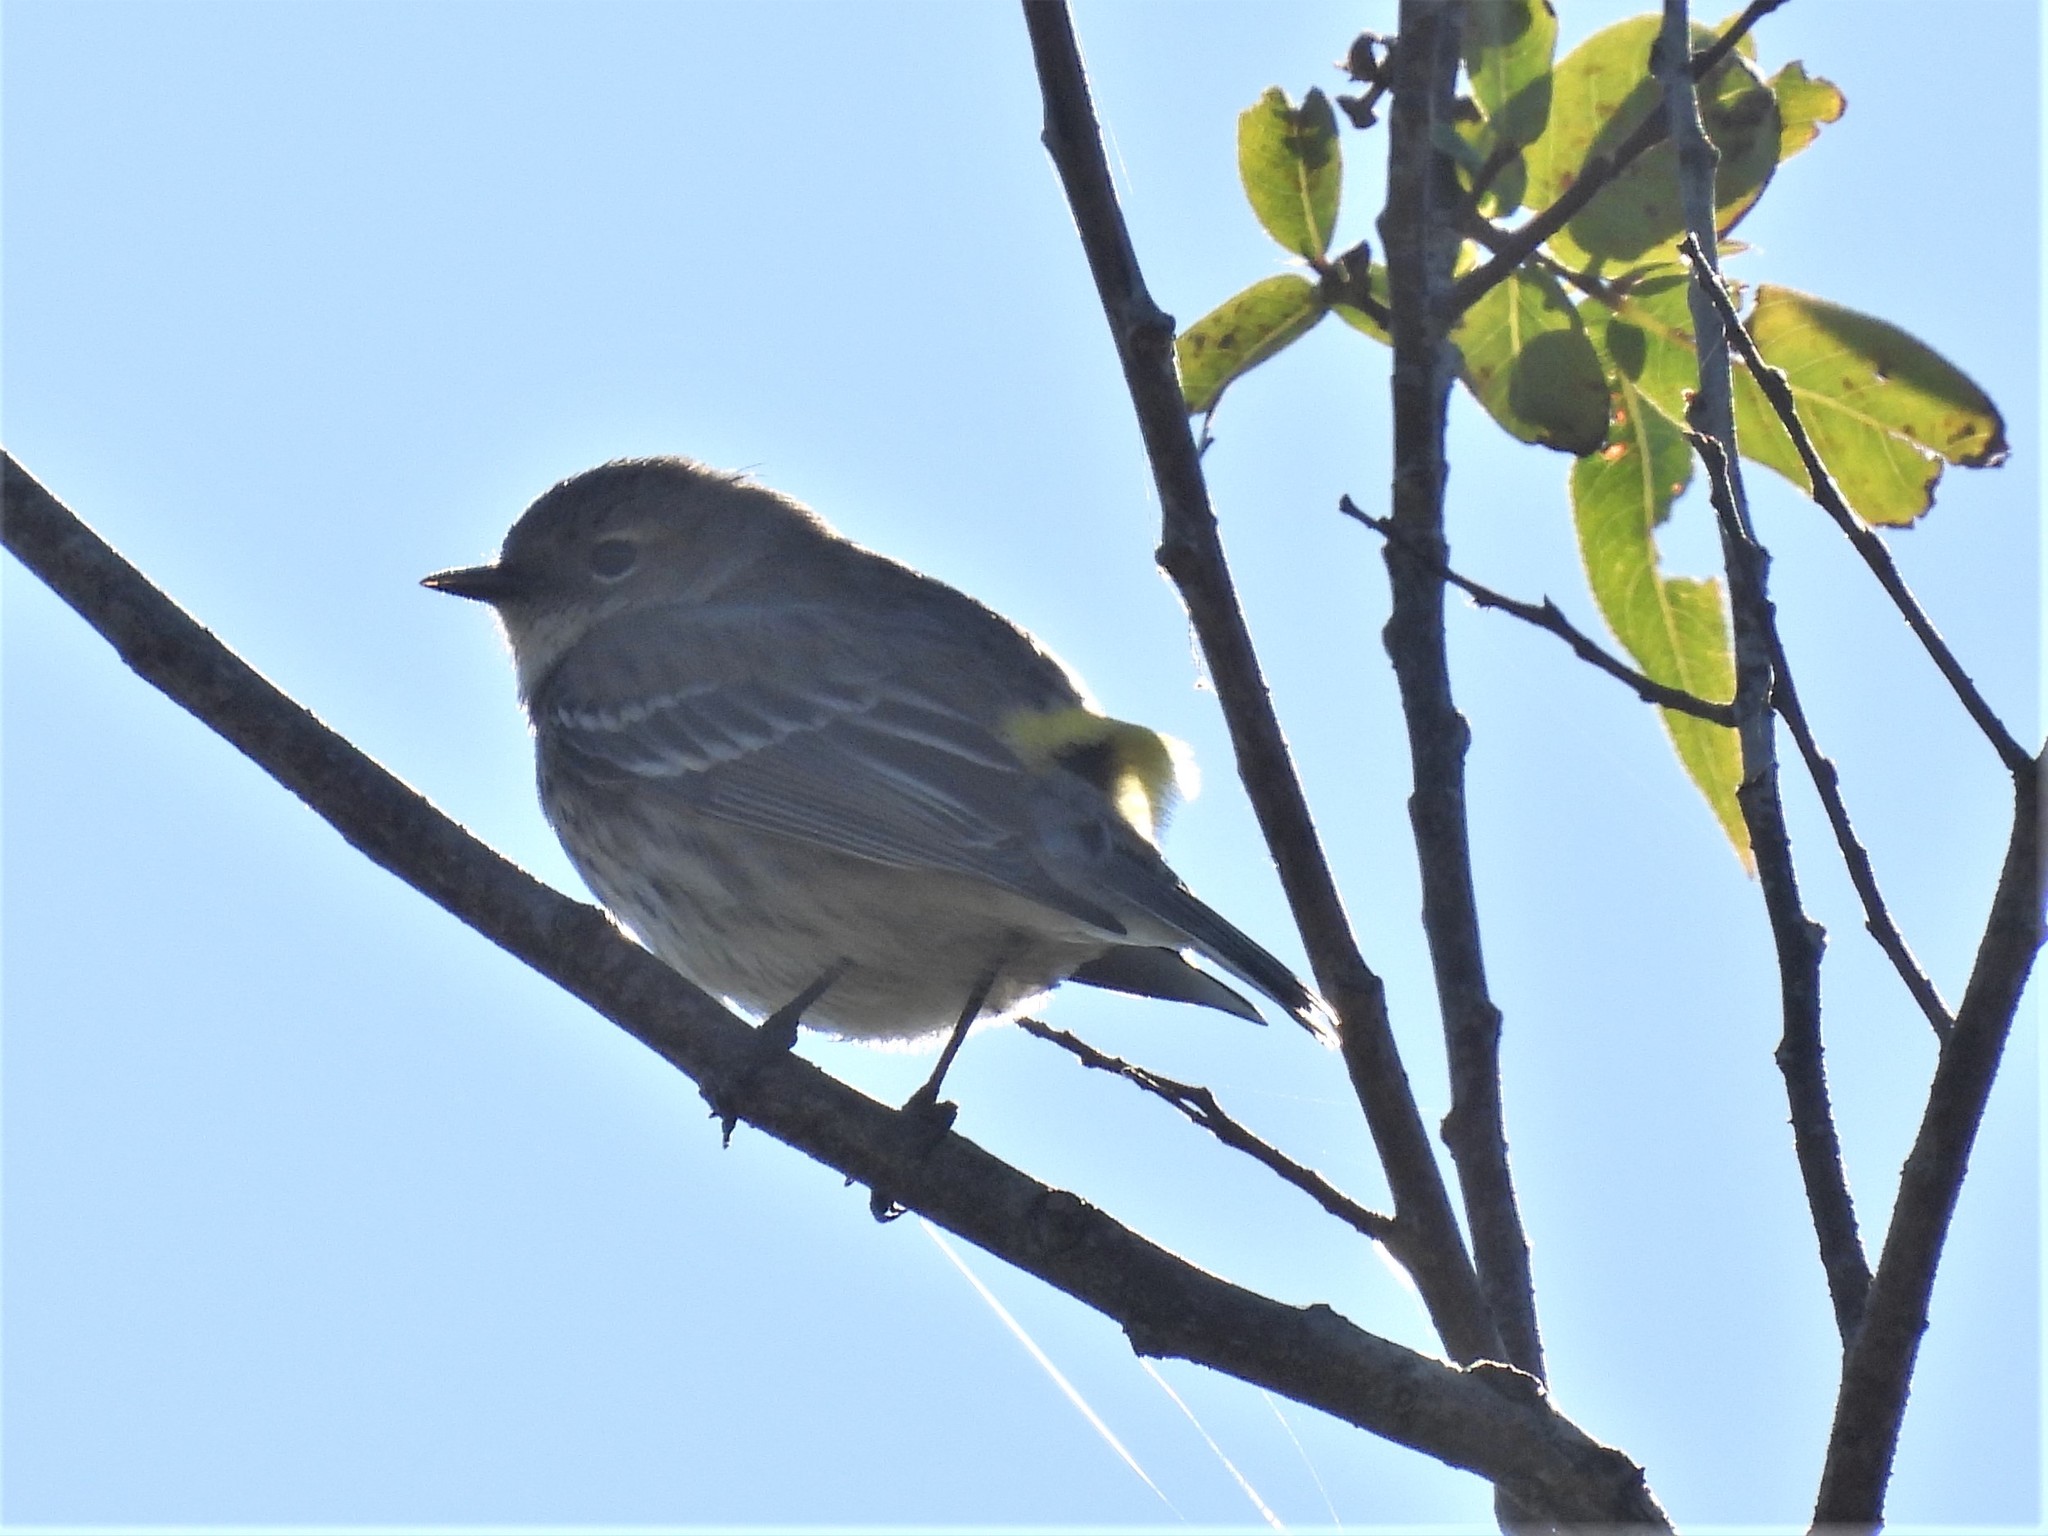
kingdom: Animalia
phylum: Chordata
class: Aves
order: Passeriformes
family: Parulidae
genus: Setophaga
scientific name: Setophaga coronata
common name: Myrtle warbler
